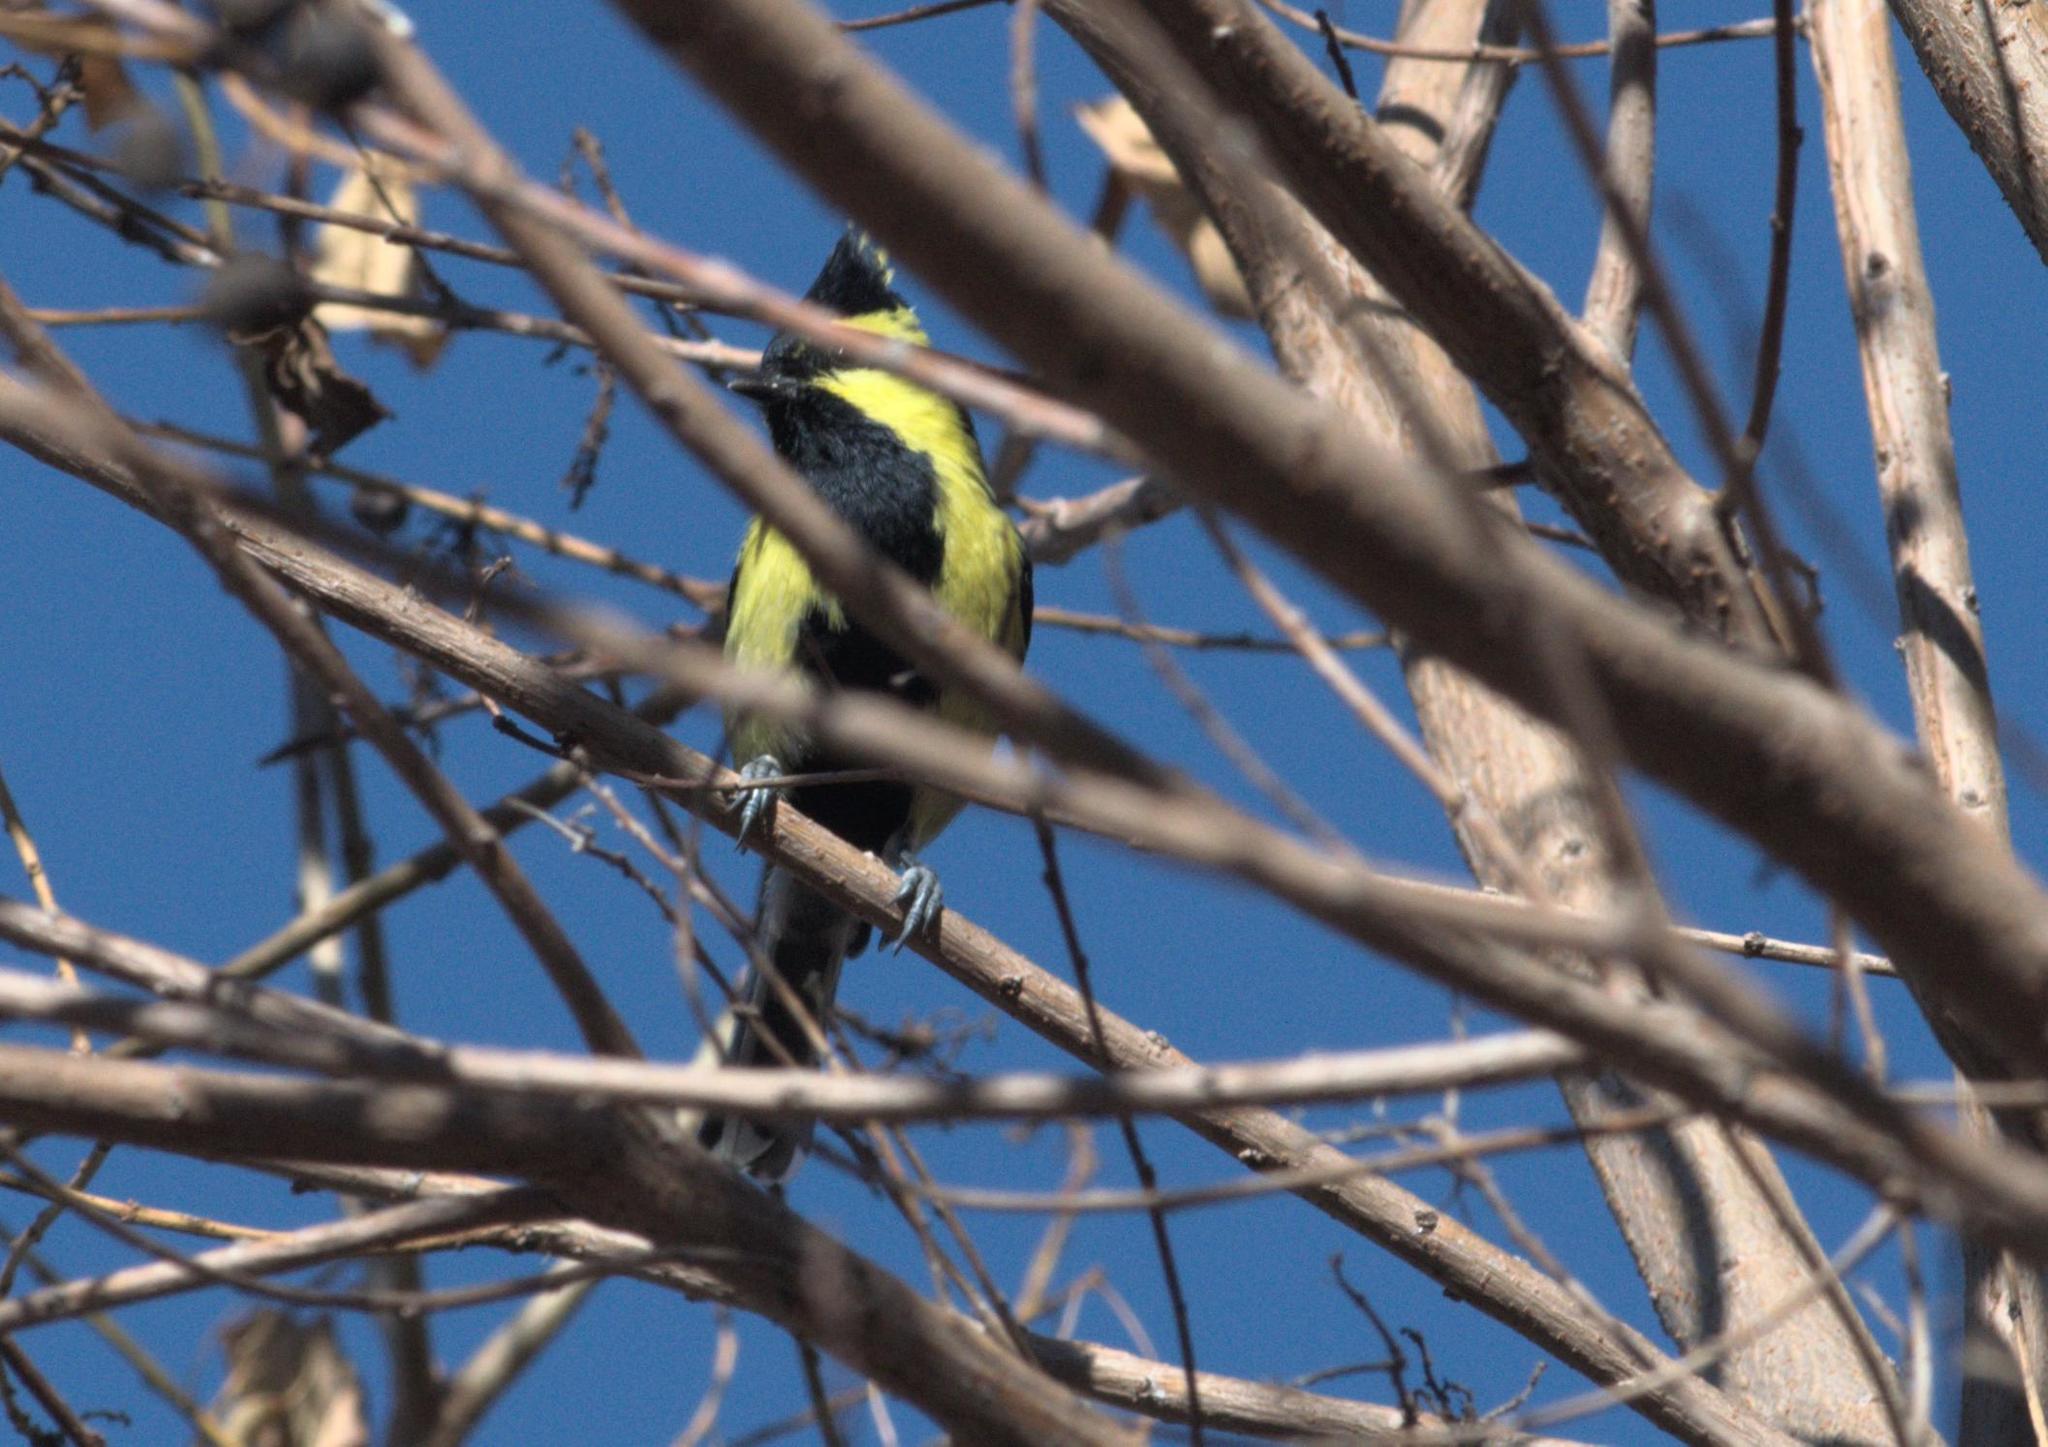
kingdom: Animalia
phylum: Chordata
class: Aves
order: Passeriformes
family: Paridae
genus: Parus
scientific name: Parus xanthogenys
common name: Black-lored tit
